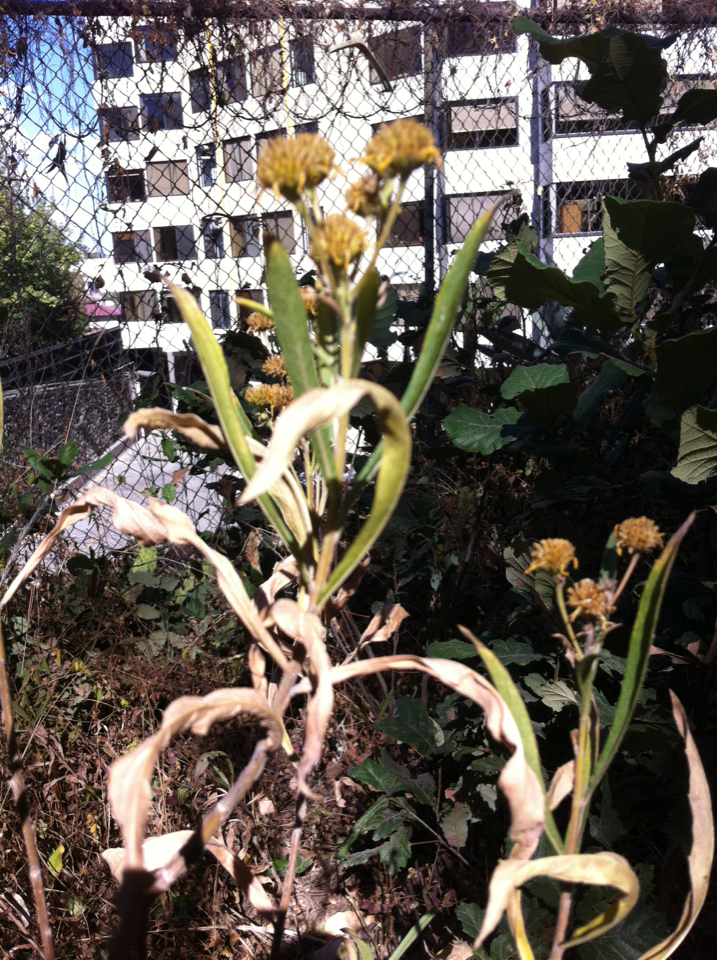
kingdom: Plantae
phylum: Tracheophyta
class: Magnoliopsida
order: Asterales
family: Asteraceae
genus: Verbesina
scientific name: Verbesina virgata
